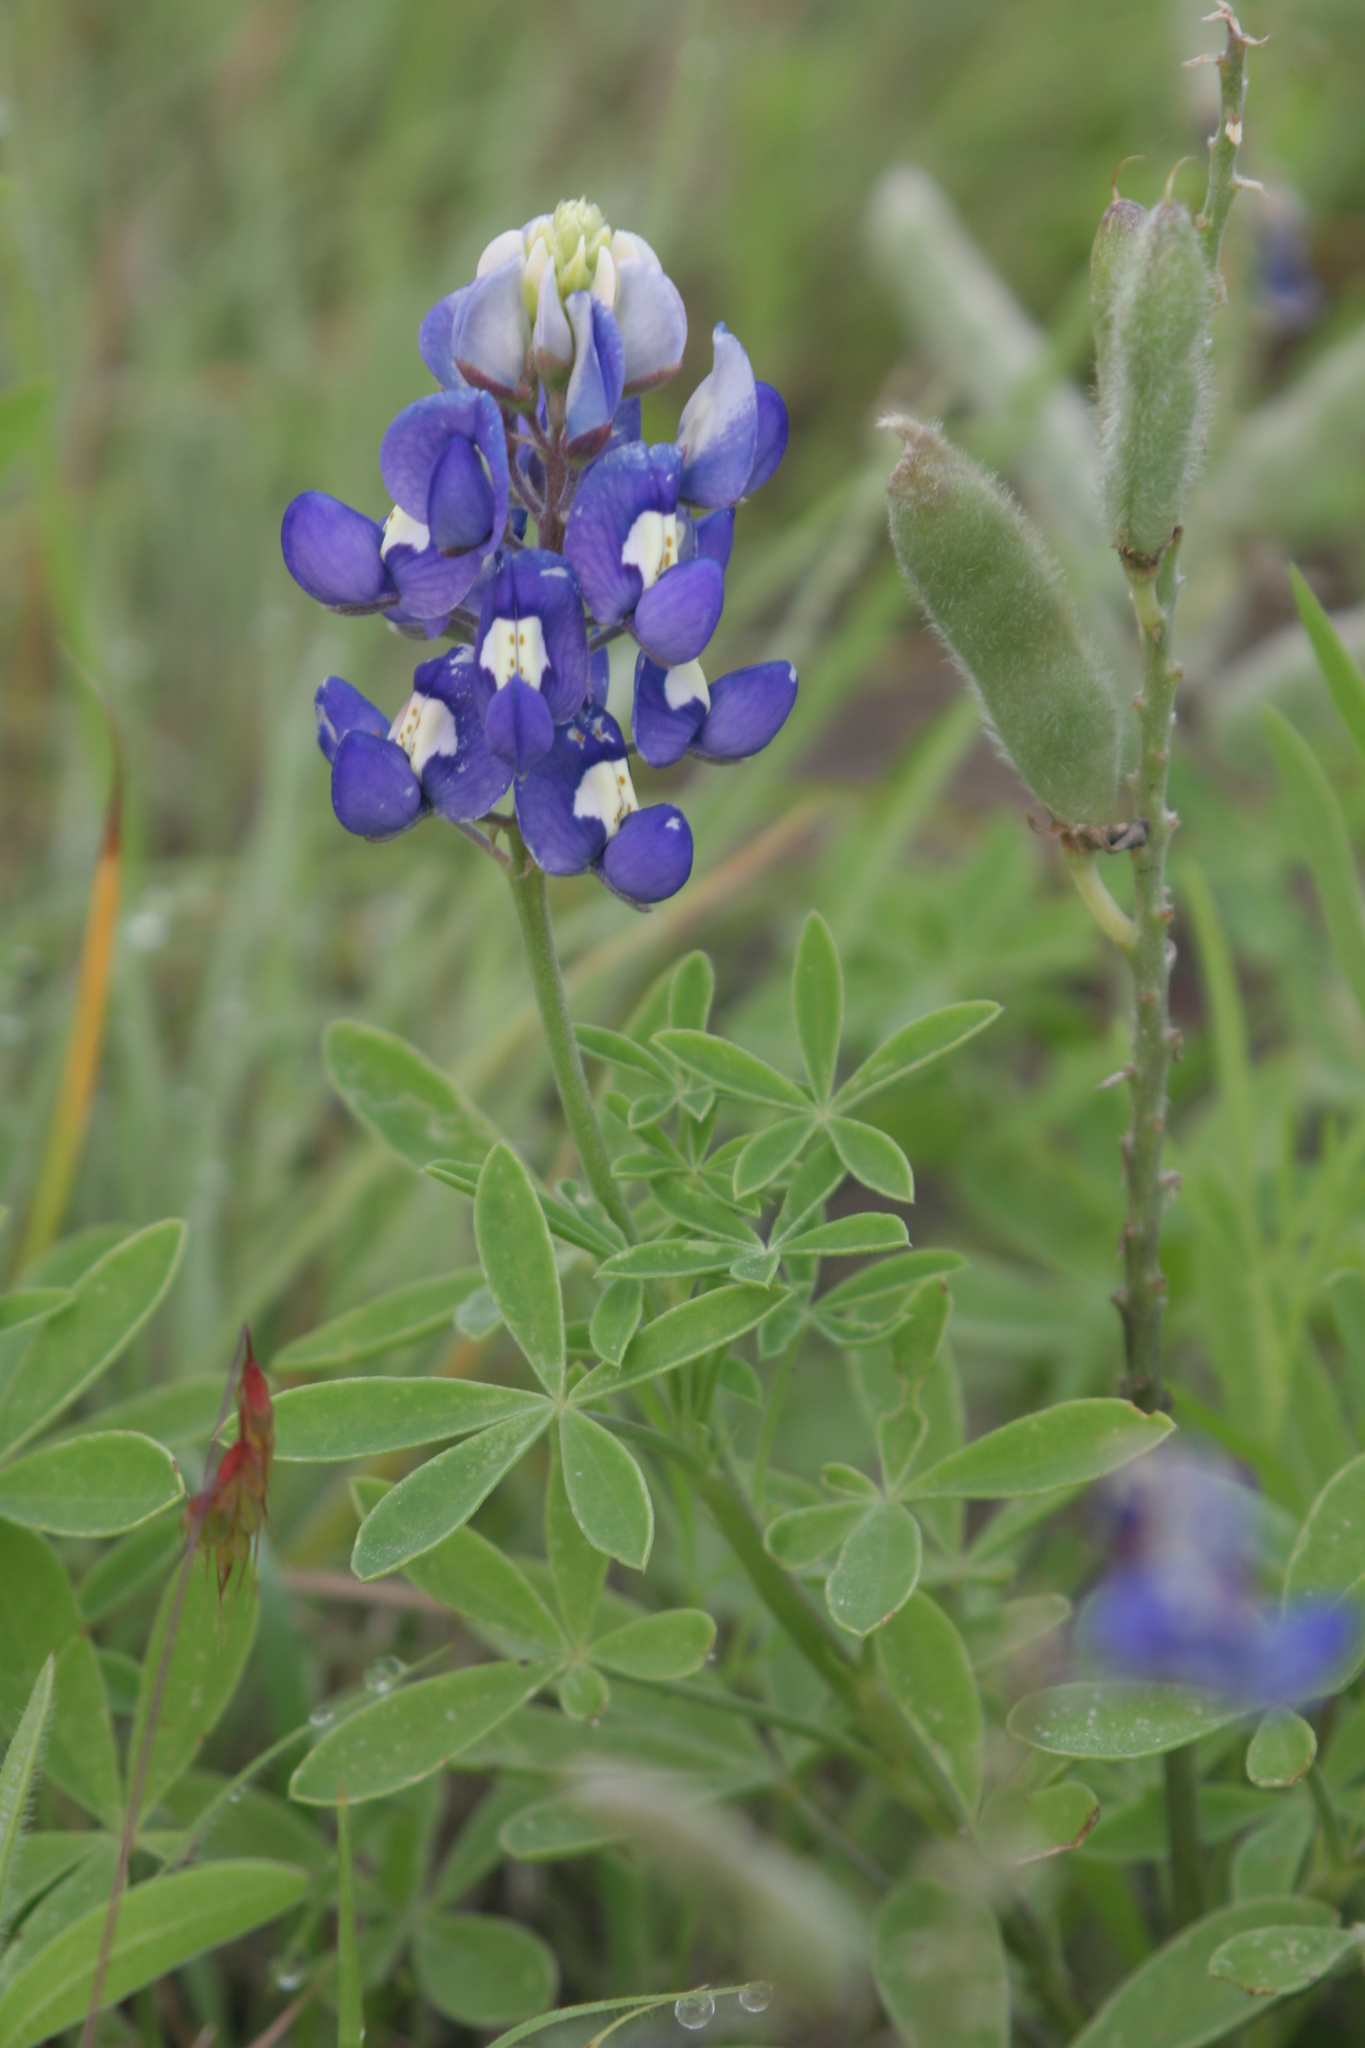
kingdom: Plantae
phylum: Tracheophyta
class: Magnoliopsida
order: Fabales
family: Fabaceae
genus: Lupinus
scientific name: Lupinus texensis
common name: Texas bluebonnet
